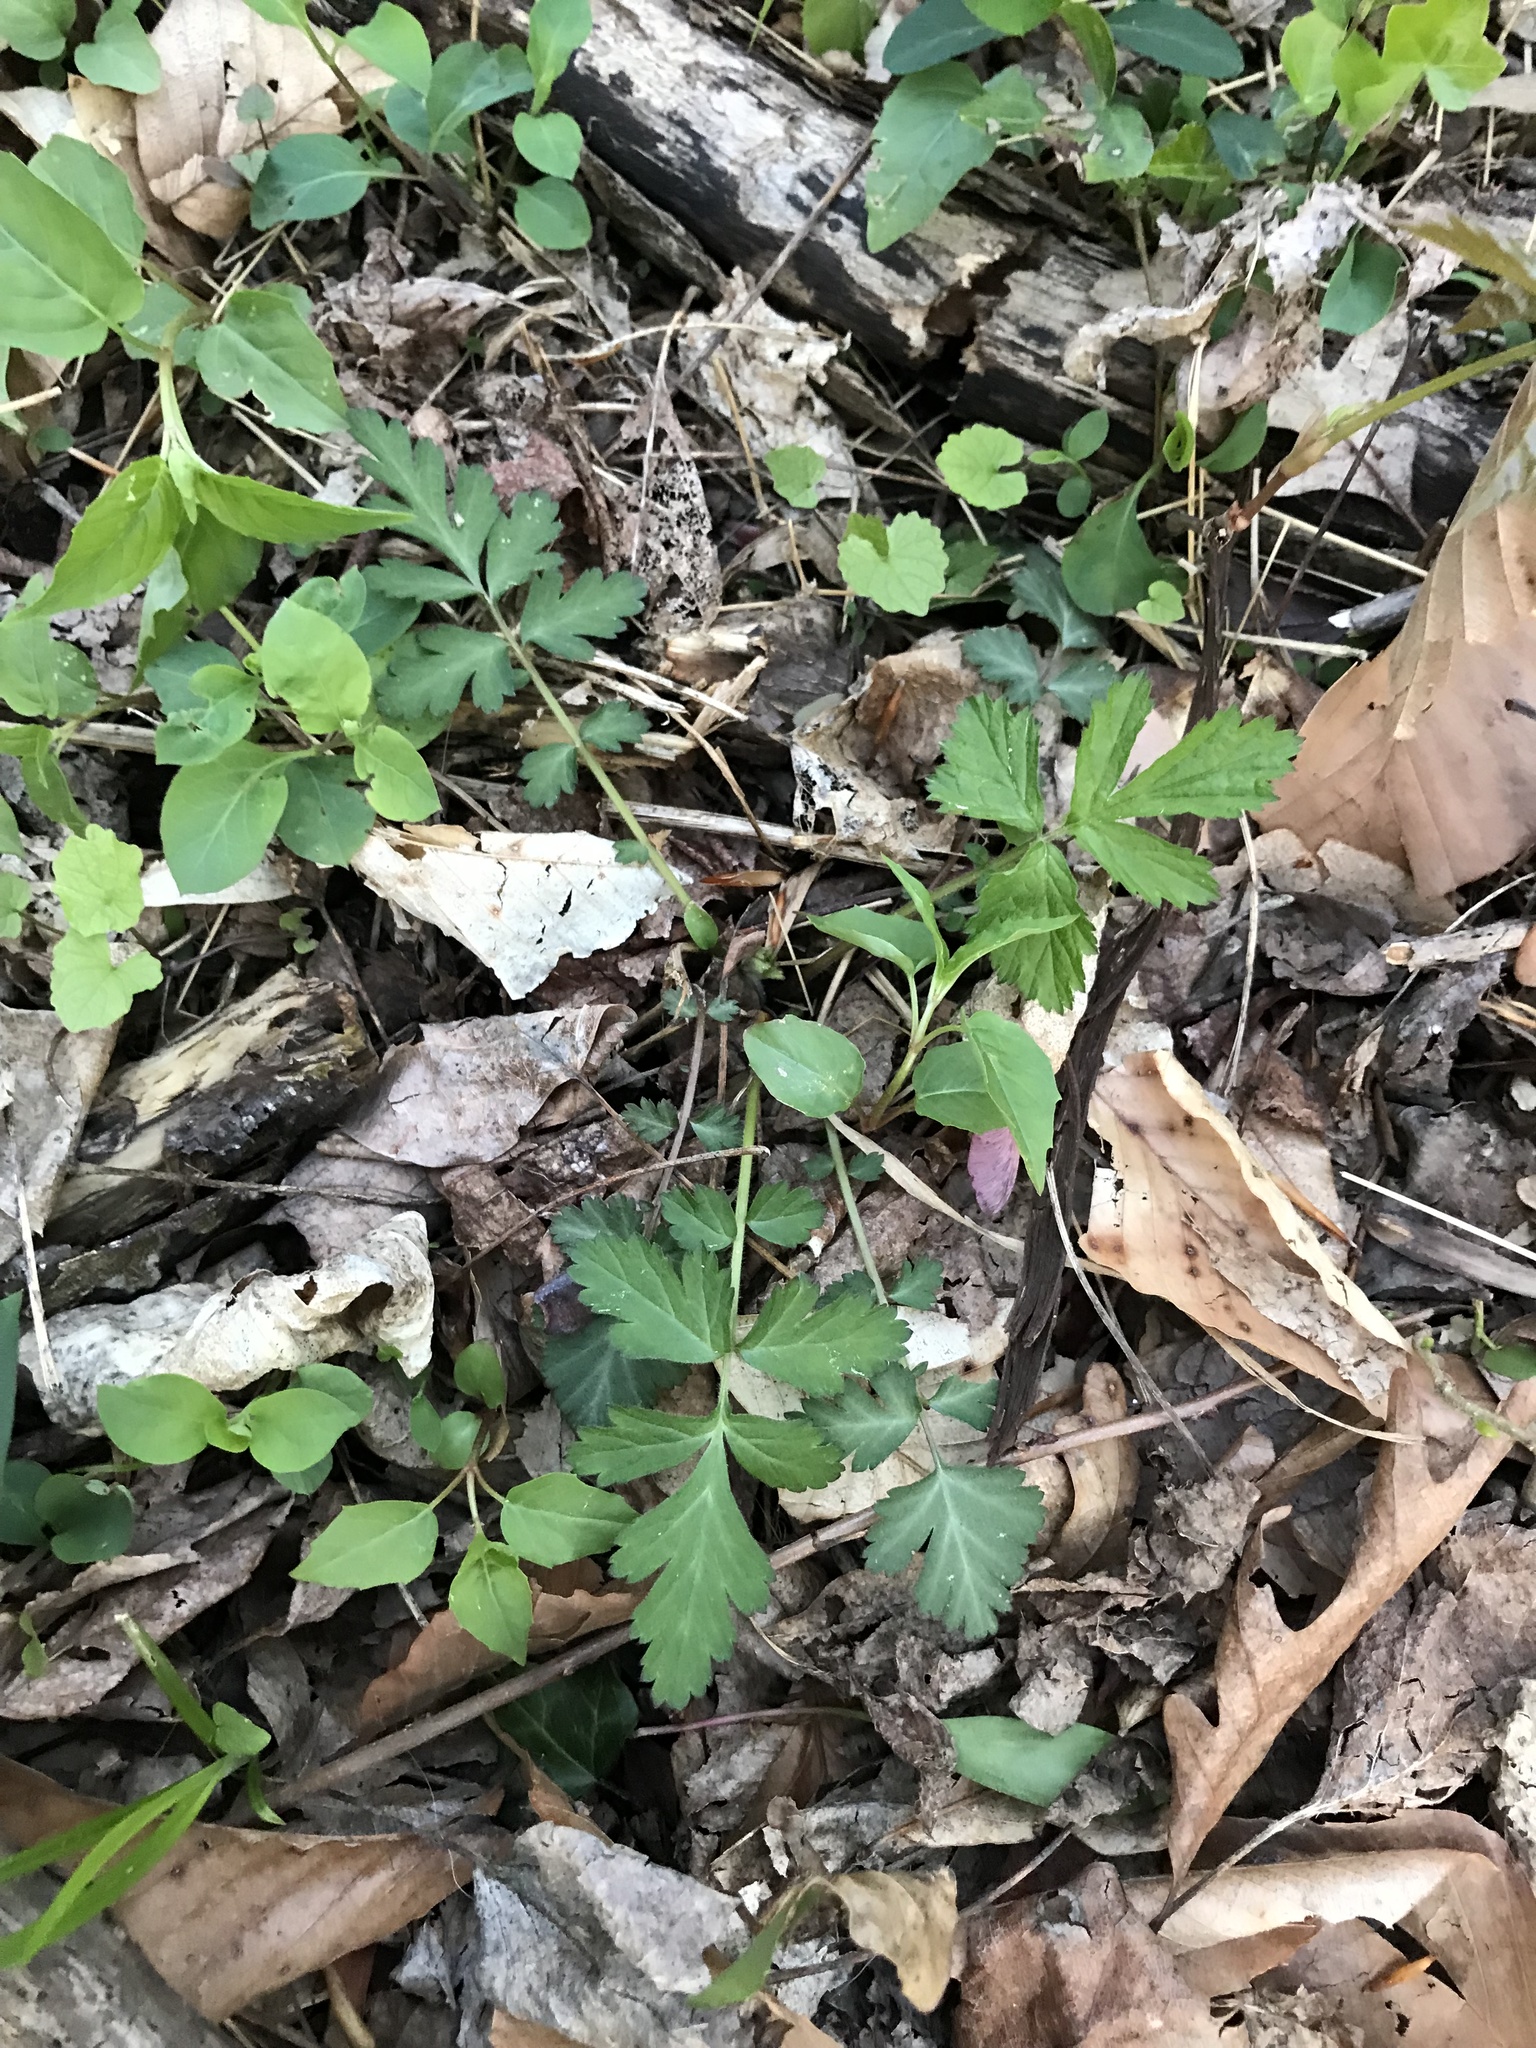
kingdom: Plantae
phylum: Tracheophyta
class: Magnoliopsida
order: Rosales
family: Rosaceae
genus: Geum
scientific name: Geum canadense
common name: White avens
